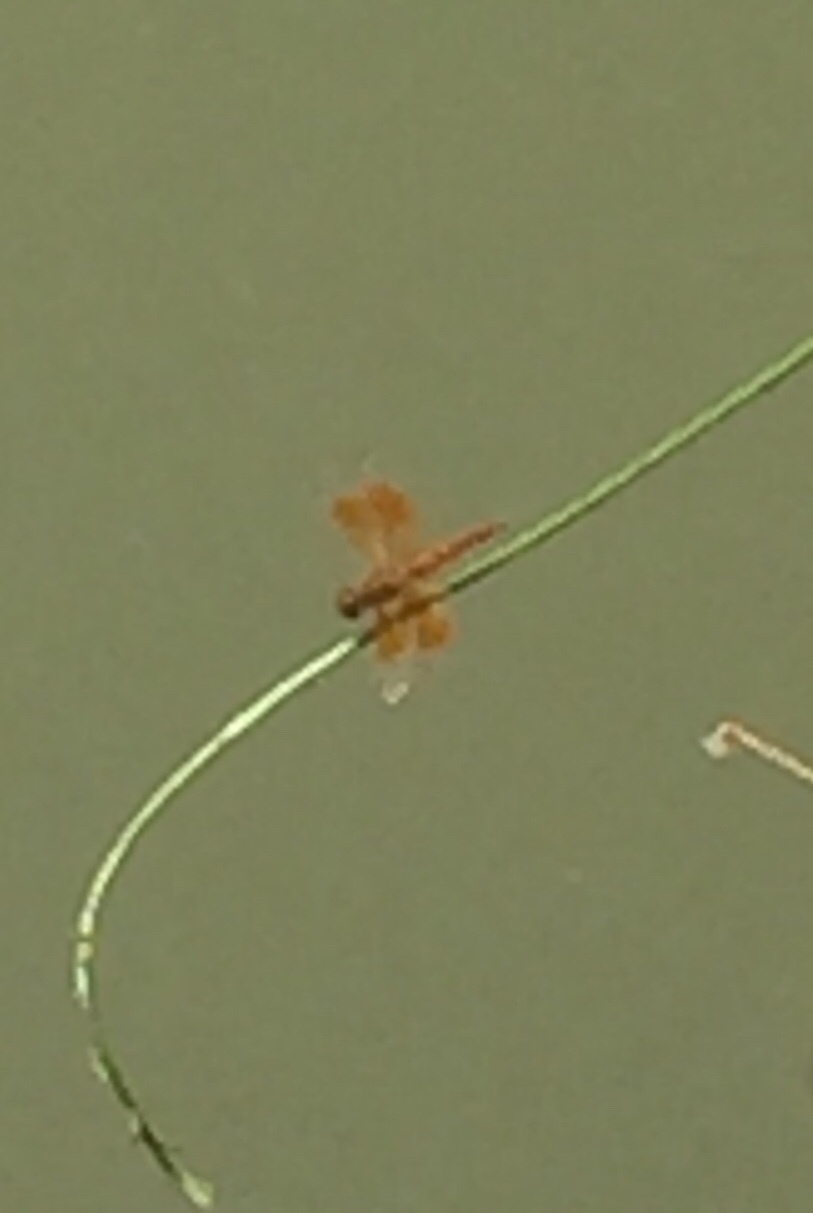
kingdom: Animalia
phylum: Arthropoda
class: Insecta
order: Odonata
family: Libellulidae
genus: Brachythemis
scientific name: Brachythemis contaminata
